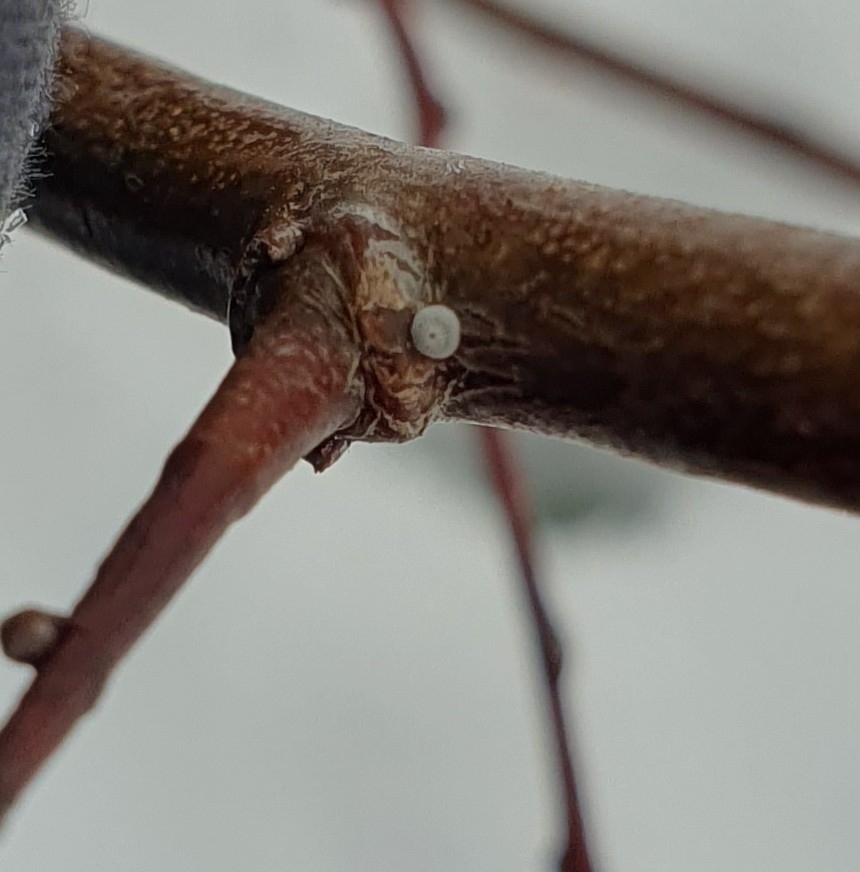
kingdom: Animalia
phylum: Arthropoda
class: Insecta
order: Lepidoptera
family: Lycaenidae
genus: Thecla
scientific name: Thecla betulae
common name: Brown hairstreak
